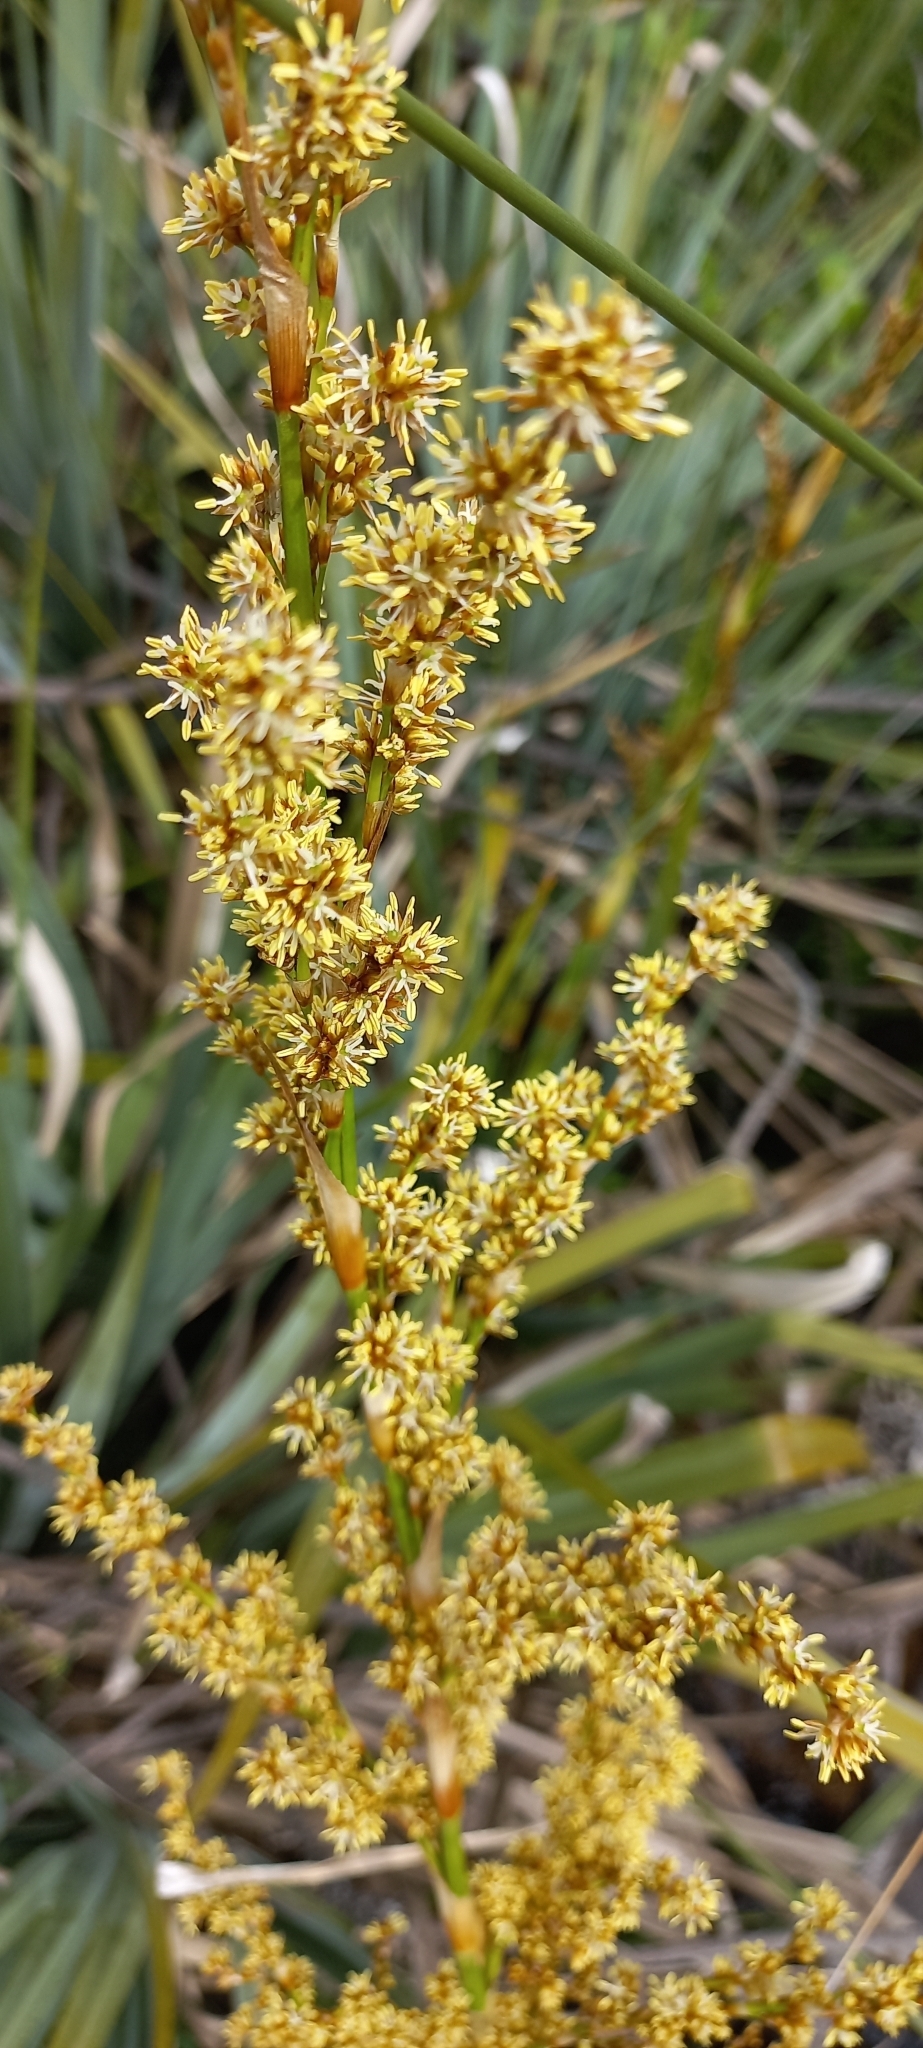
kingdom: Plantae
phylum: Tracheophyta
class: Liliopsida
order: Poales
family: Thurniaceae
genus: Prionium
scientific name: Prionium serratum
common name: Palmiet
